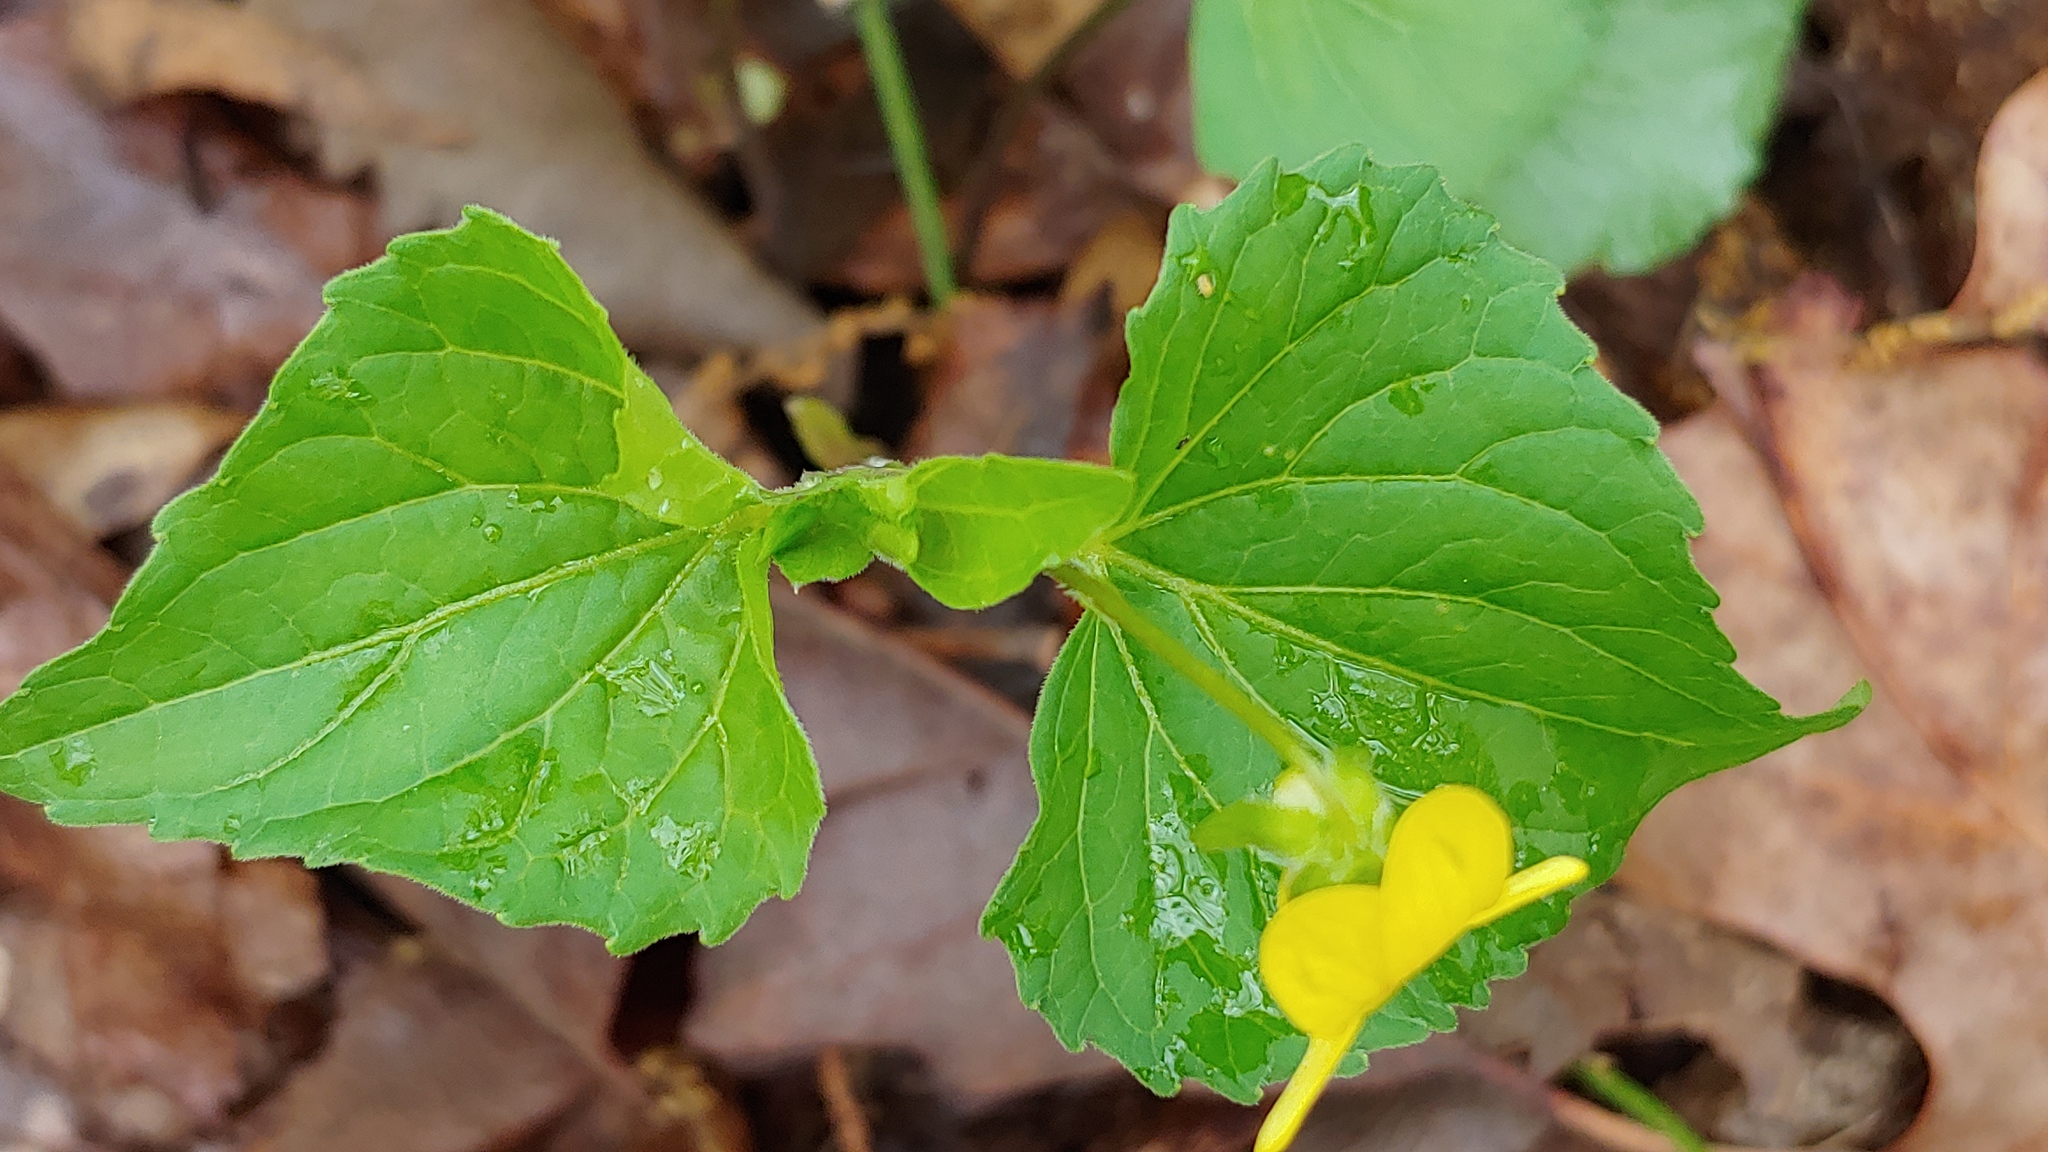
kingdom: Plantae
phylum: Tracheophyta
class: Magnoliopsida
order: Malpighiales
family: Violaceae
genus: Viola
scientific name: Viola eriocarpa
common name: Smooth yellow violet
